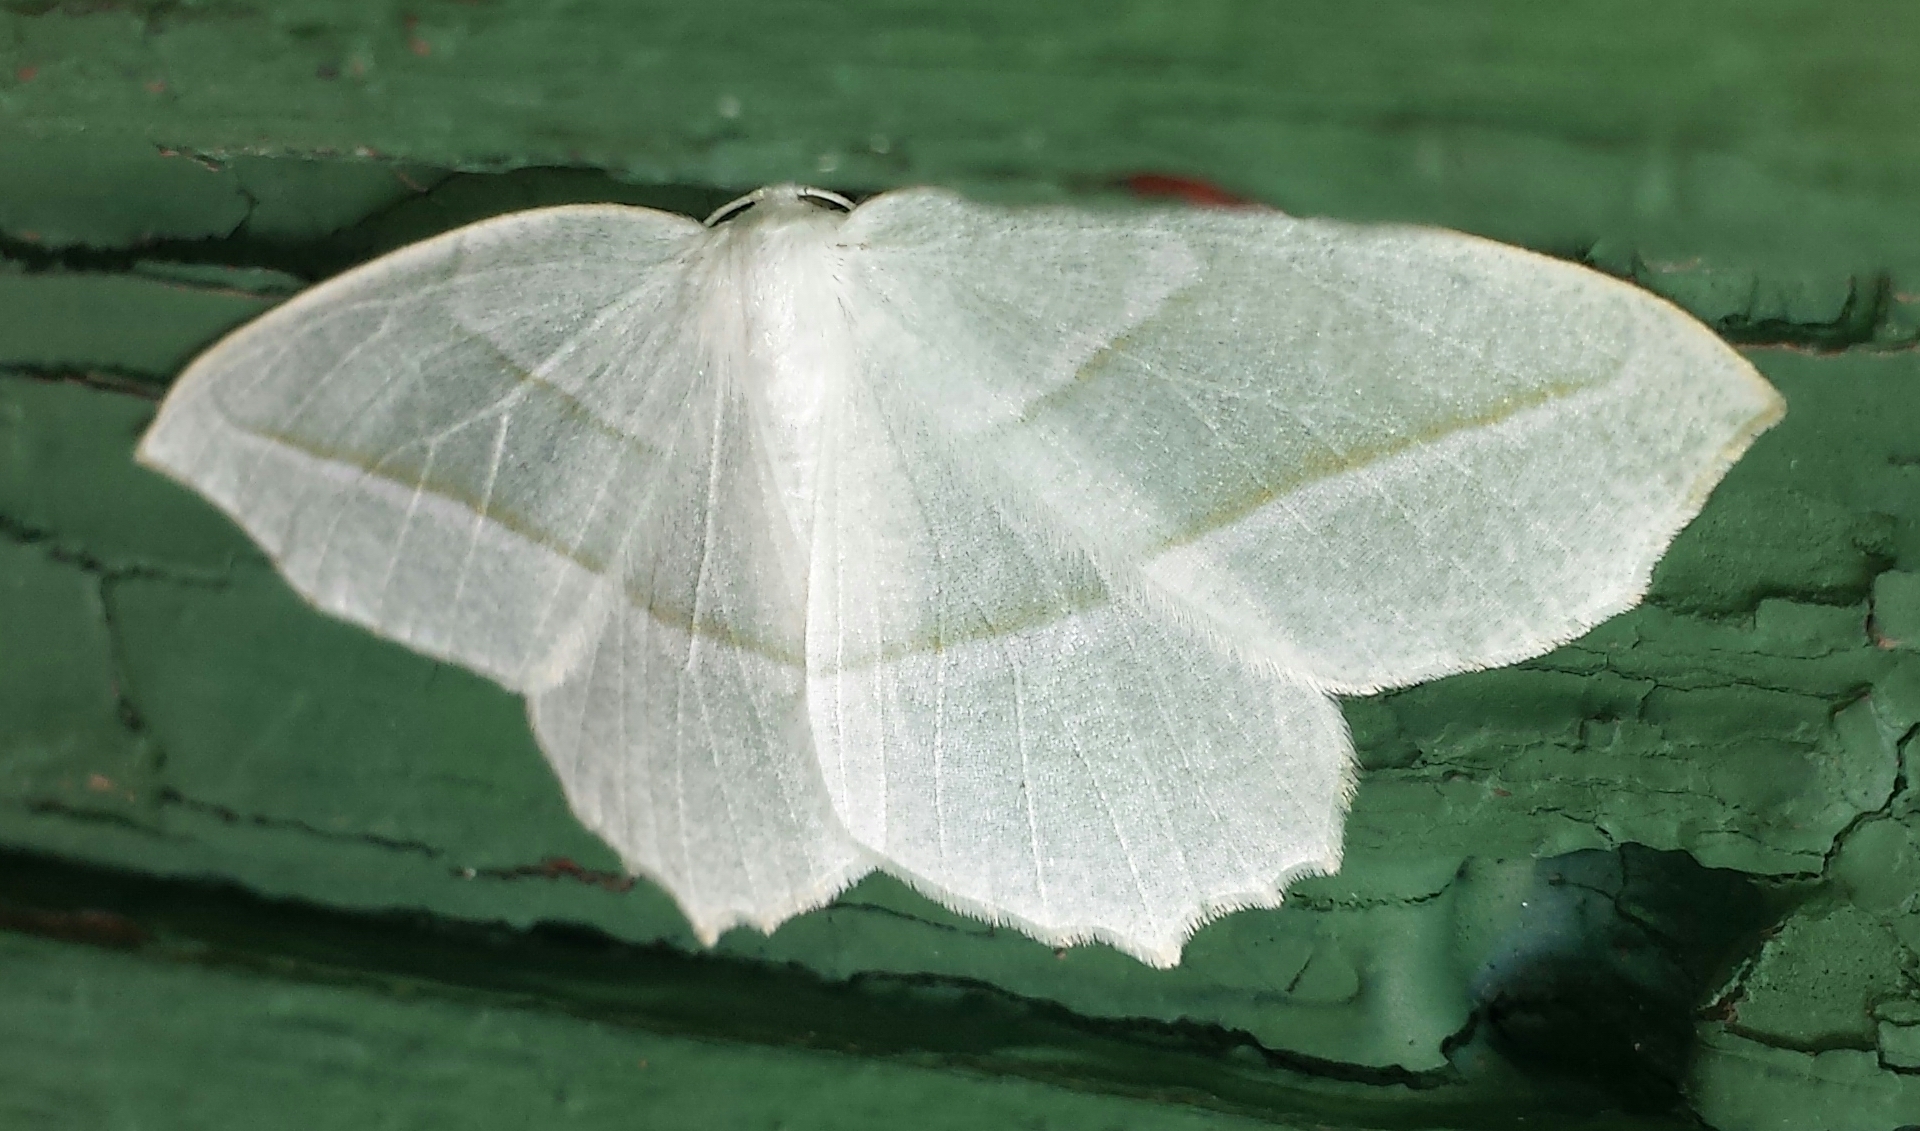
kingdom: Animalia
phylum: Arthropoda
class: Insecta
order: Lepidoptera
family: Geometridae
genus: Campaea
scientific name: Campaea perlata
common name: Fringed looper
